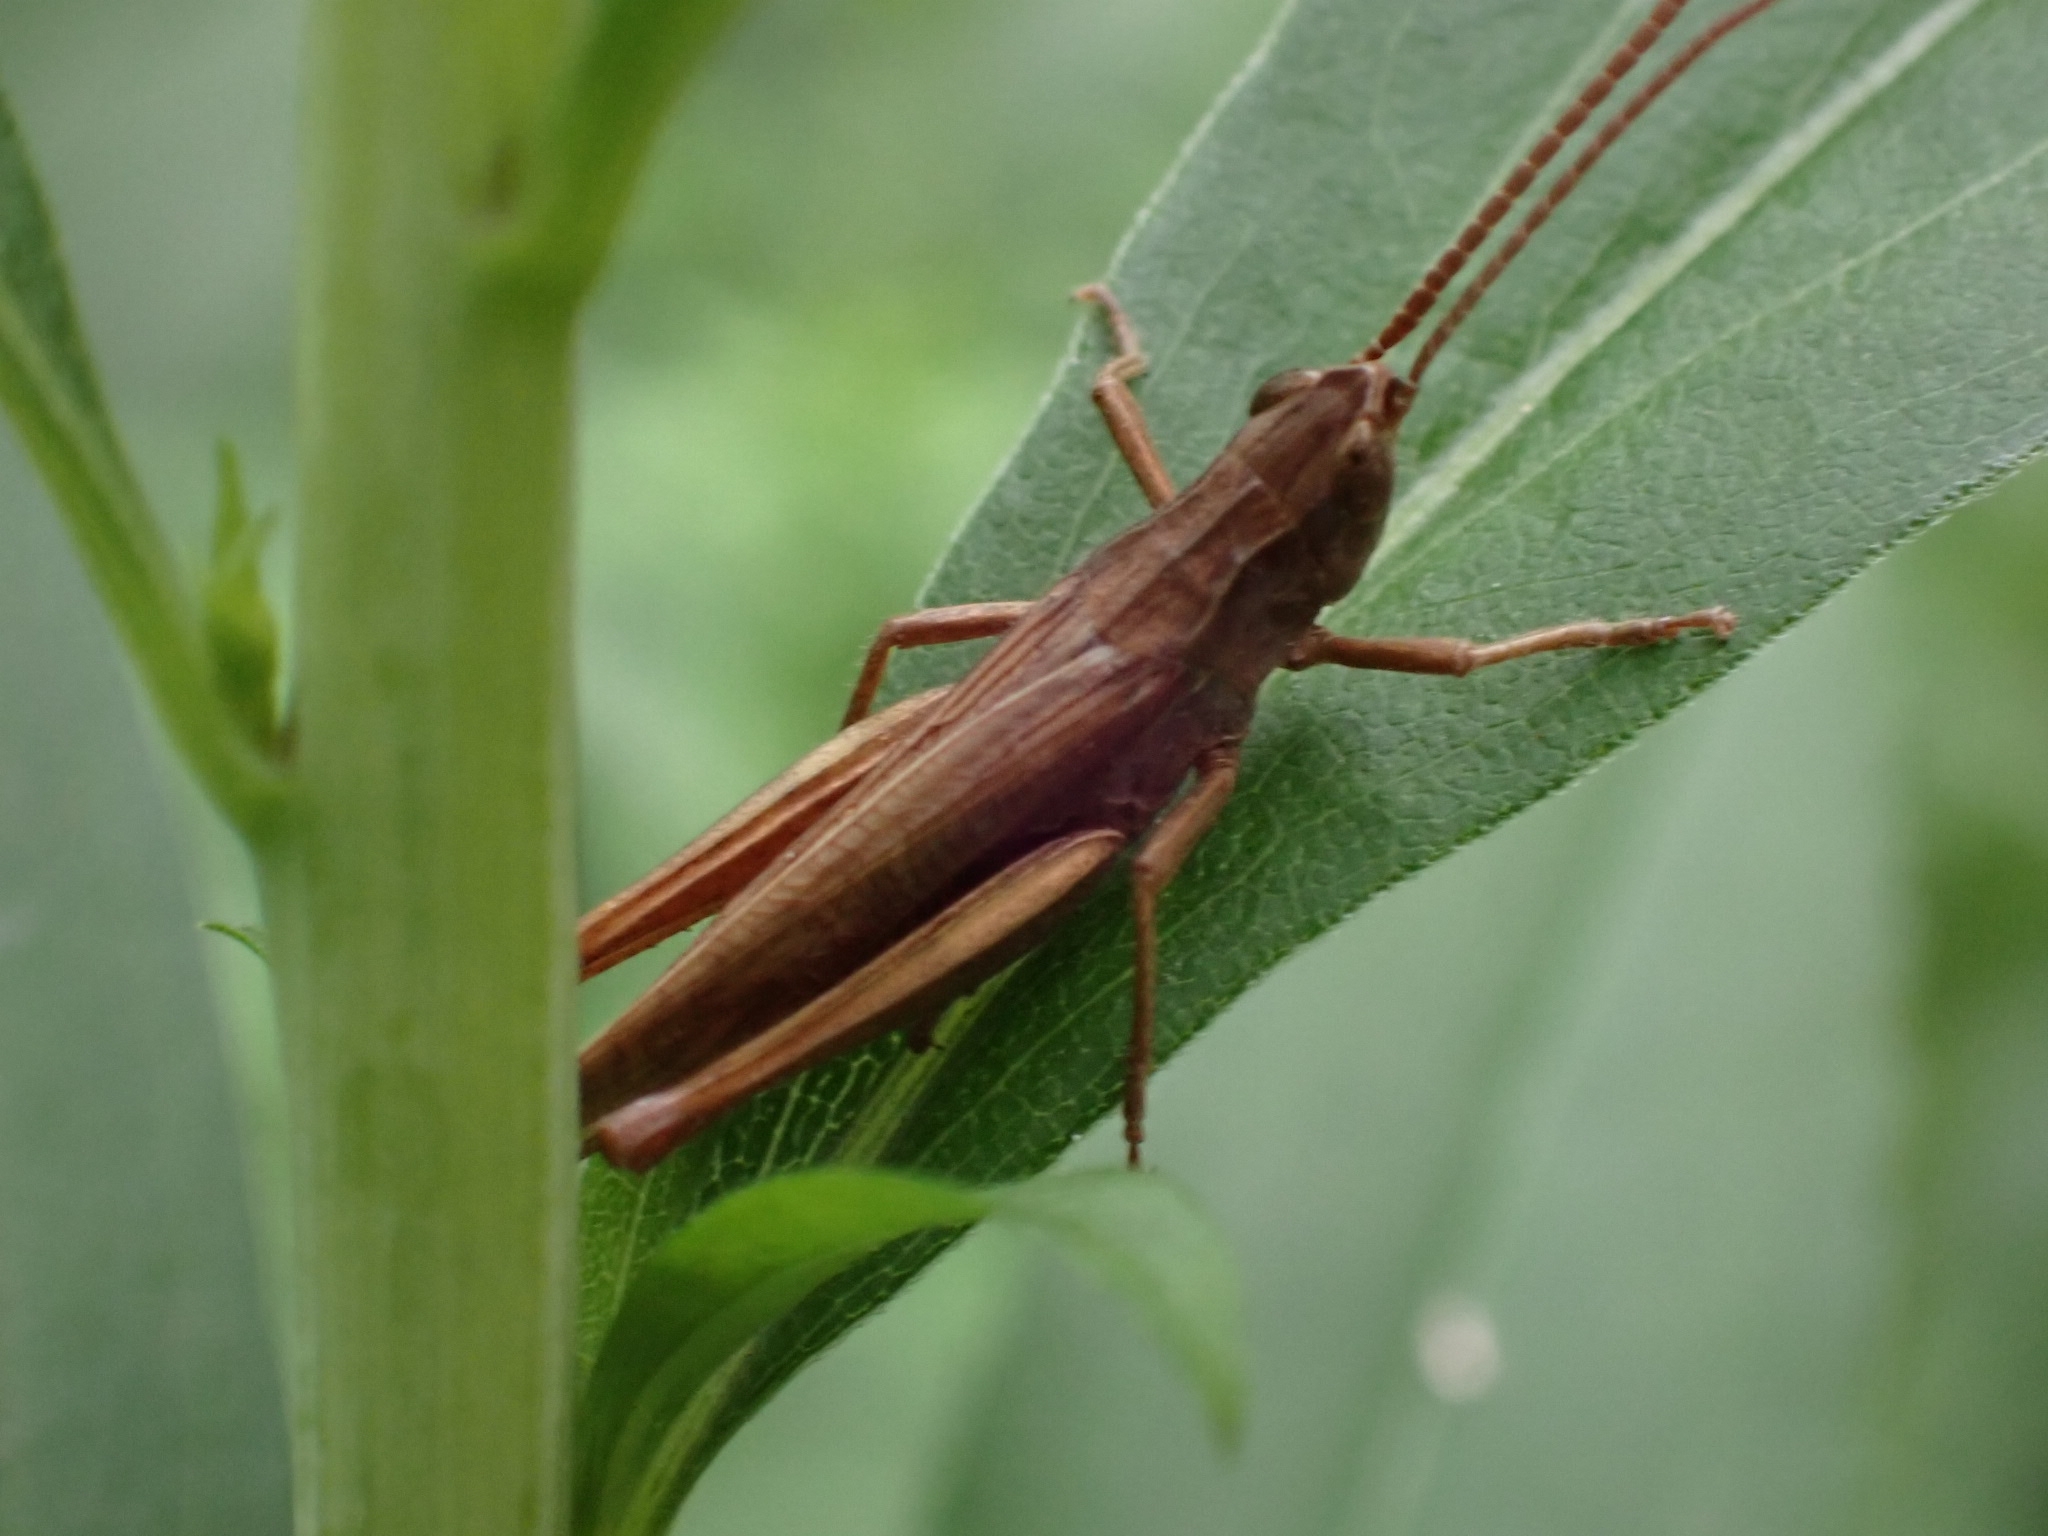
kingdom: Animalia
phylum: Arthropoda
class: Insecta
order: Orthoptera
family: Acrididae
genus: Chorthippus
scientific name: Chorthippus dorsatus
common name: Steppe grasshopper
